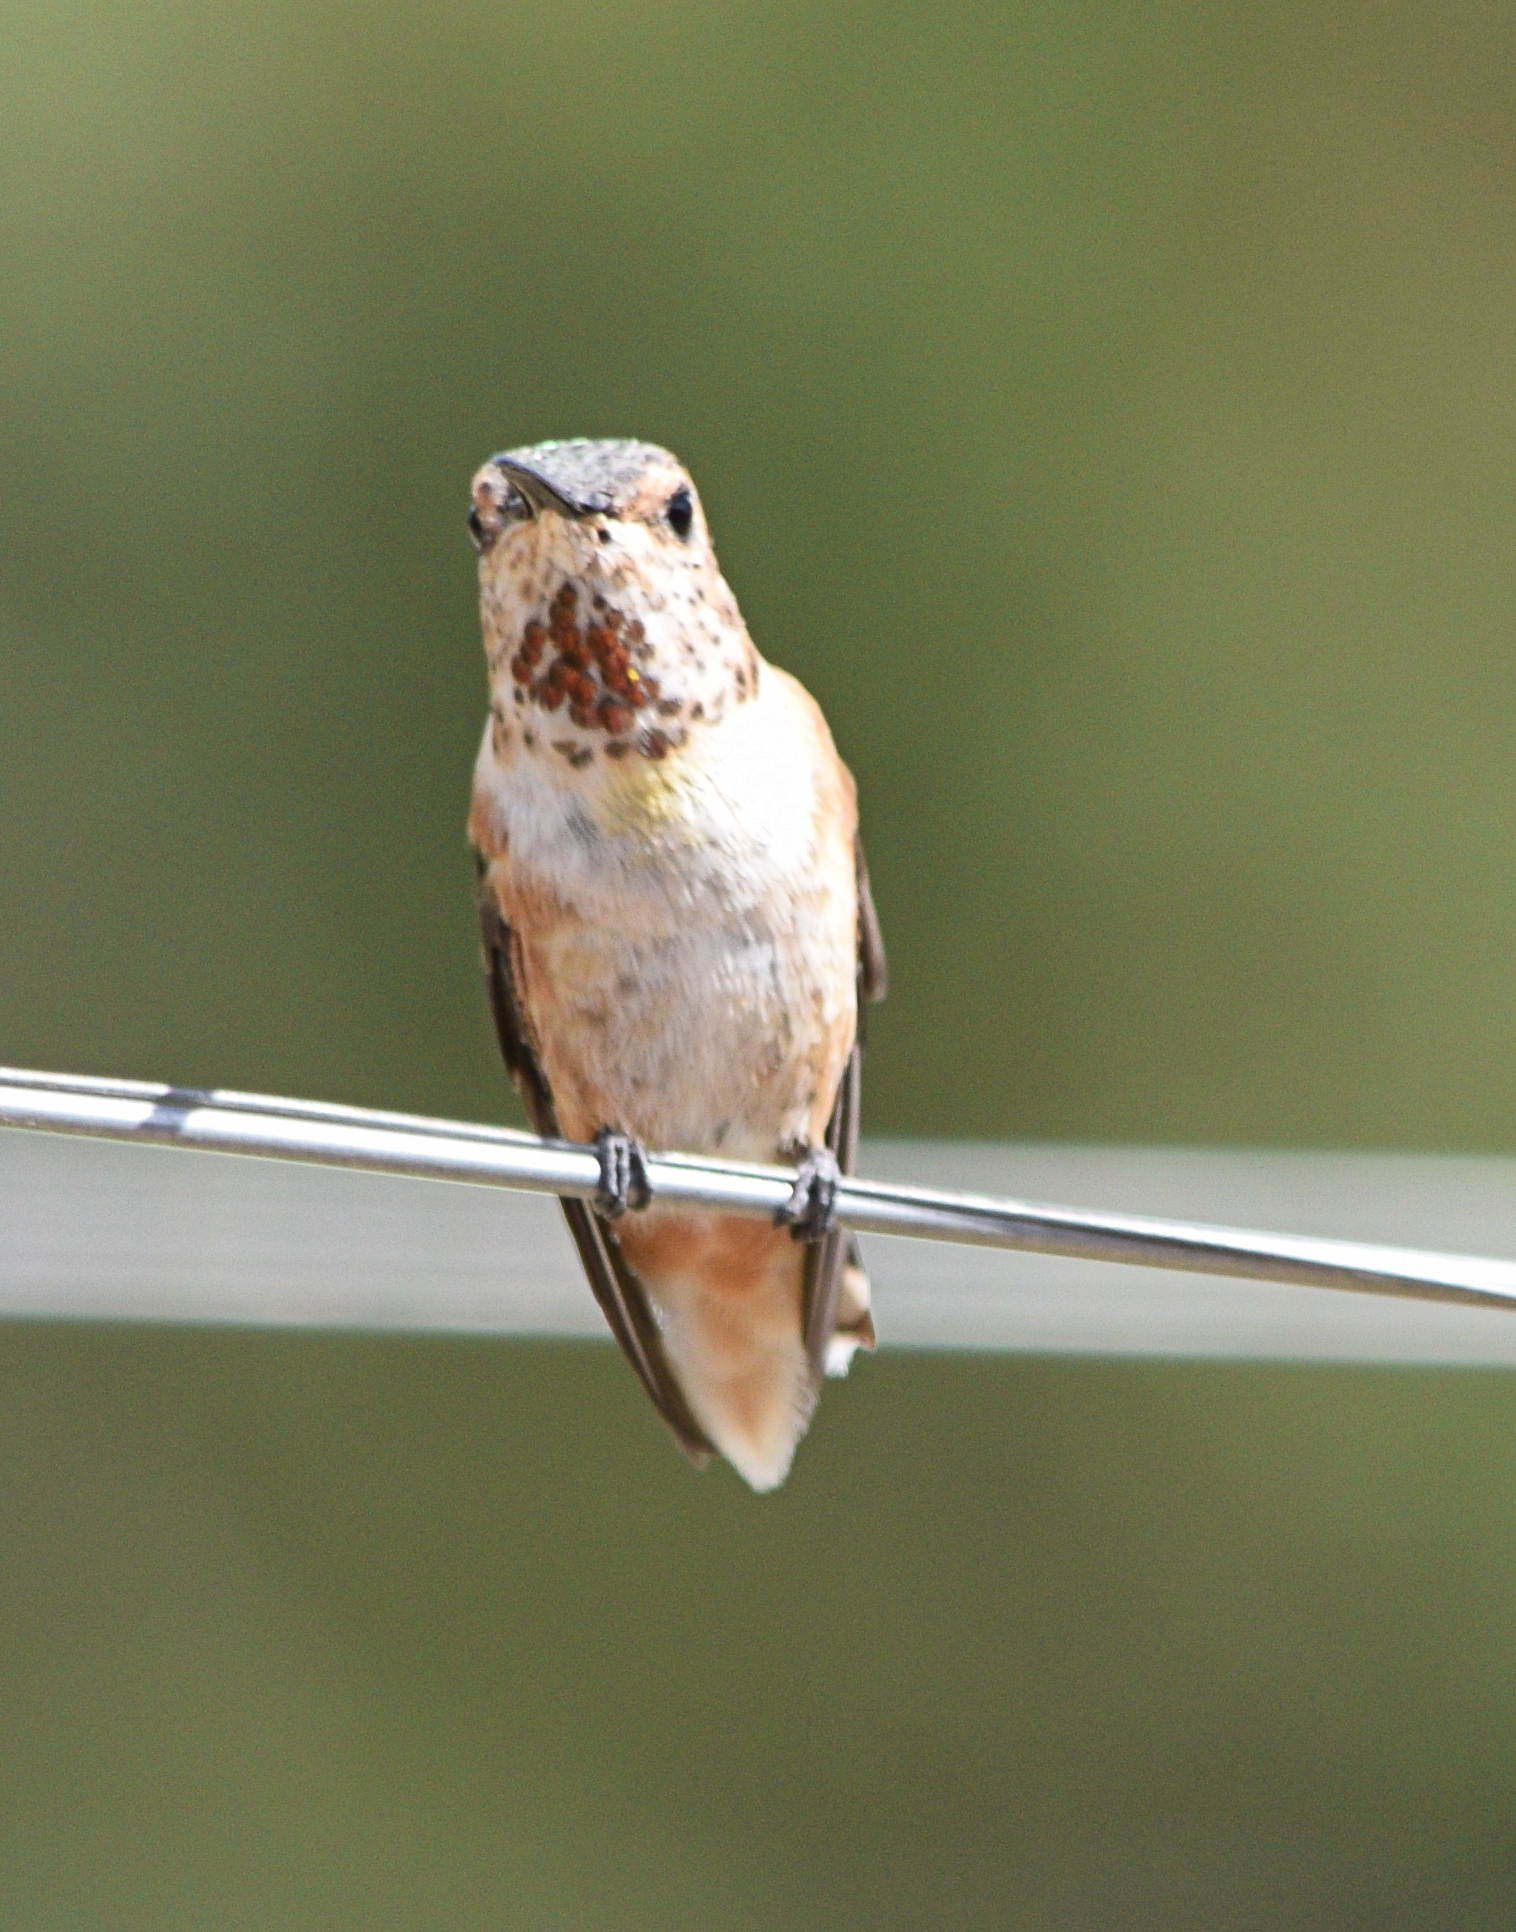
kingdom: Animalia
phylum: Chordata
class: Aves
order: Apodiformes
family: Trochilidae
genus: Selasphorus
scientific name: Selasphorus rufus
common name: Rufous hummingbird
